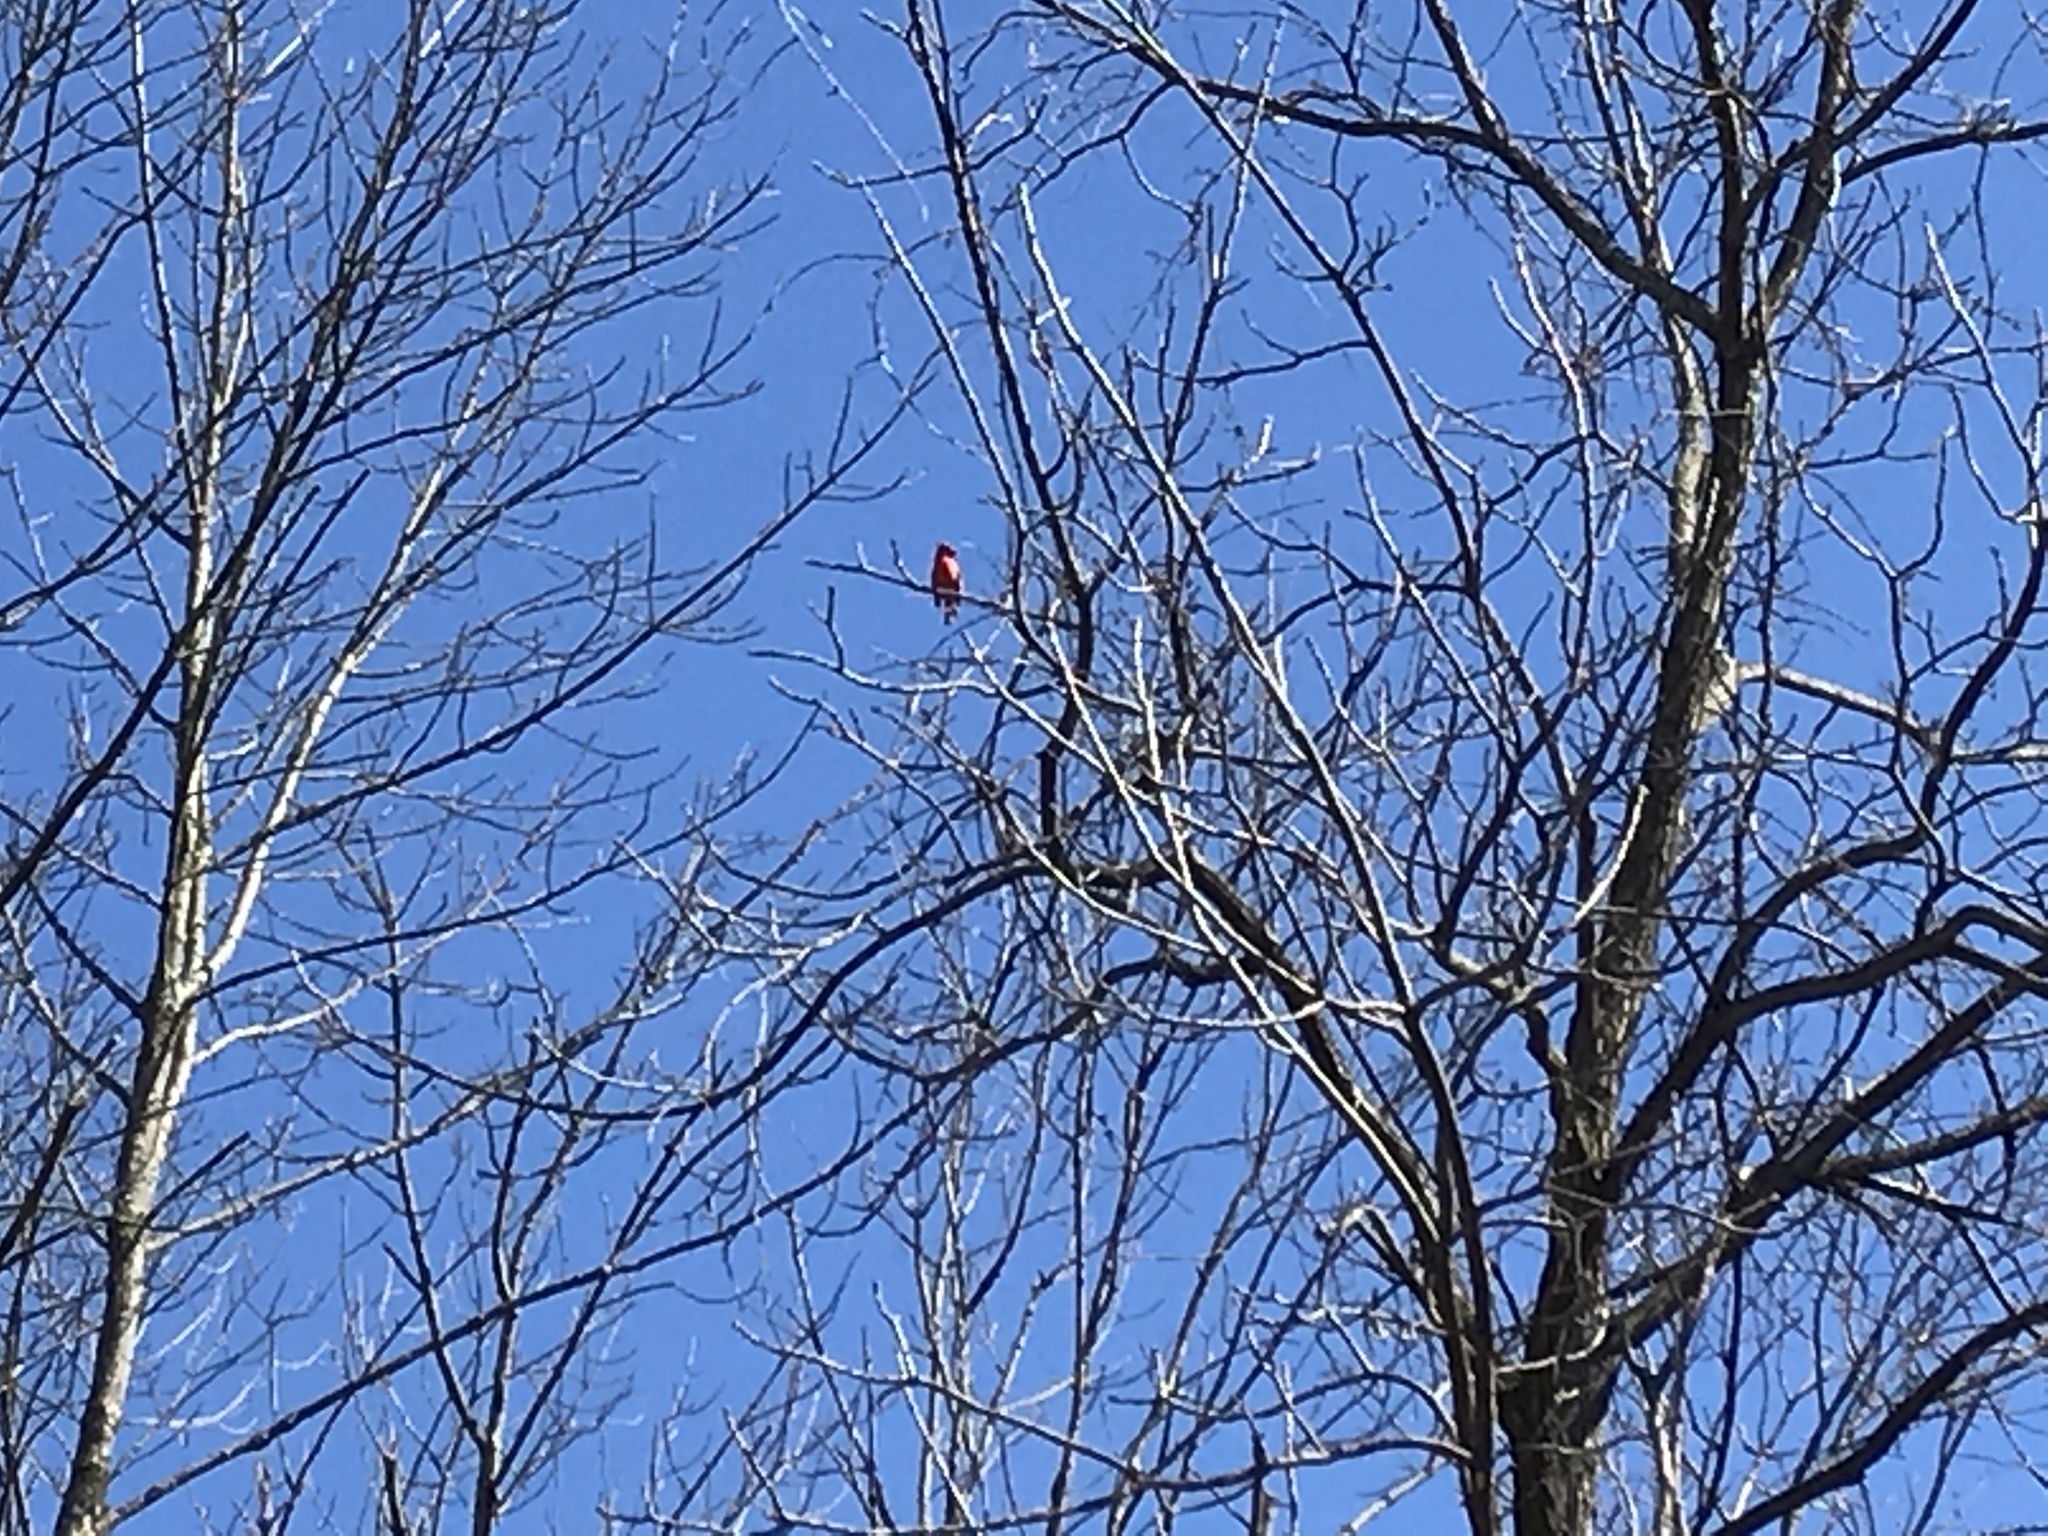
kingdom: Animalia
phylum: Chordata
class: Aves
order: Passeriformes
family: Cardinalidae
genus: Cardinalis
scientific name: Cardinalis cardinalis
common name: Northern cardinal
